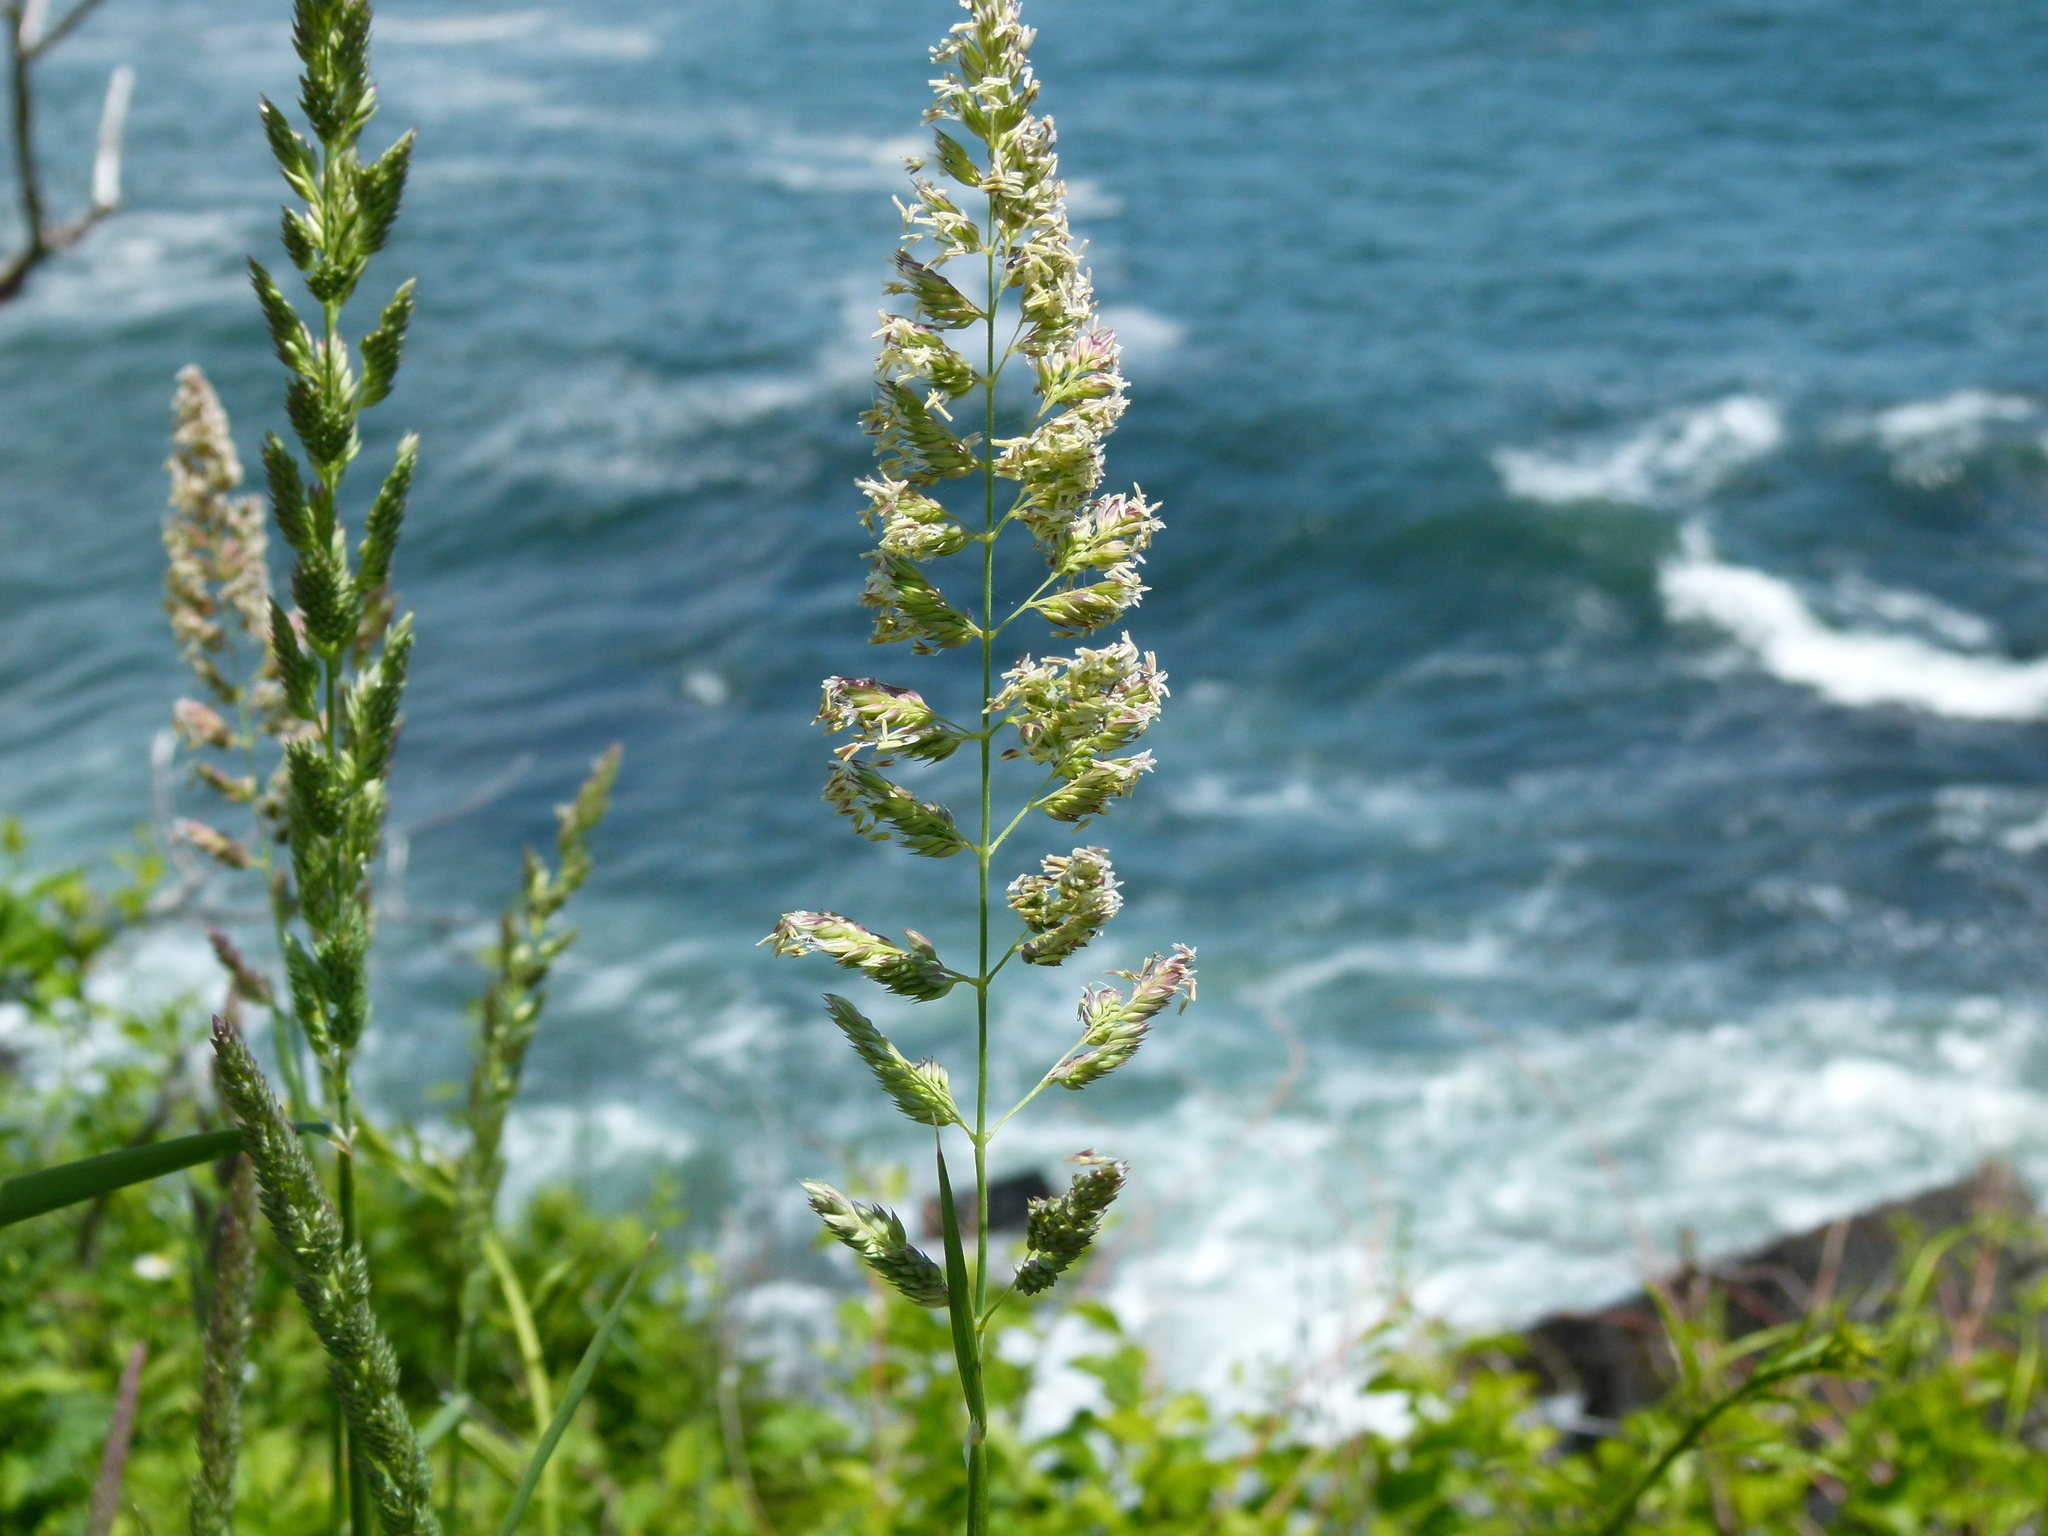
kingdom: Plantae
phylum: Tracheophyta
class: Liliopsida
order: Poales
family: Poaceae
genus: Dactylis
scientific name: Dactylis glomerata
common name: Orchardgrass
